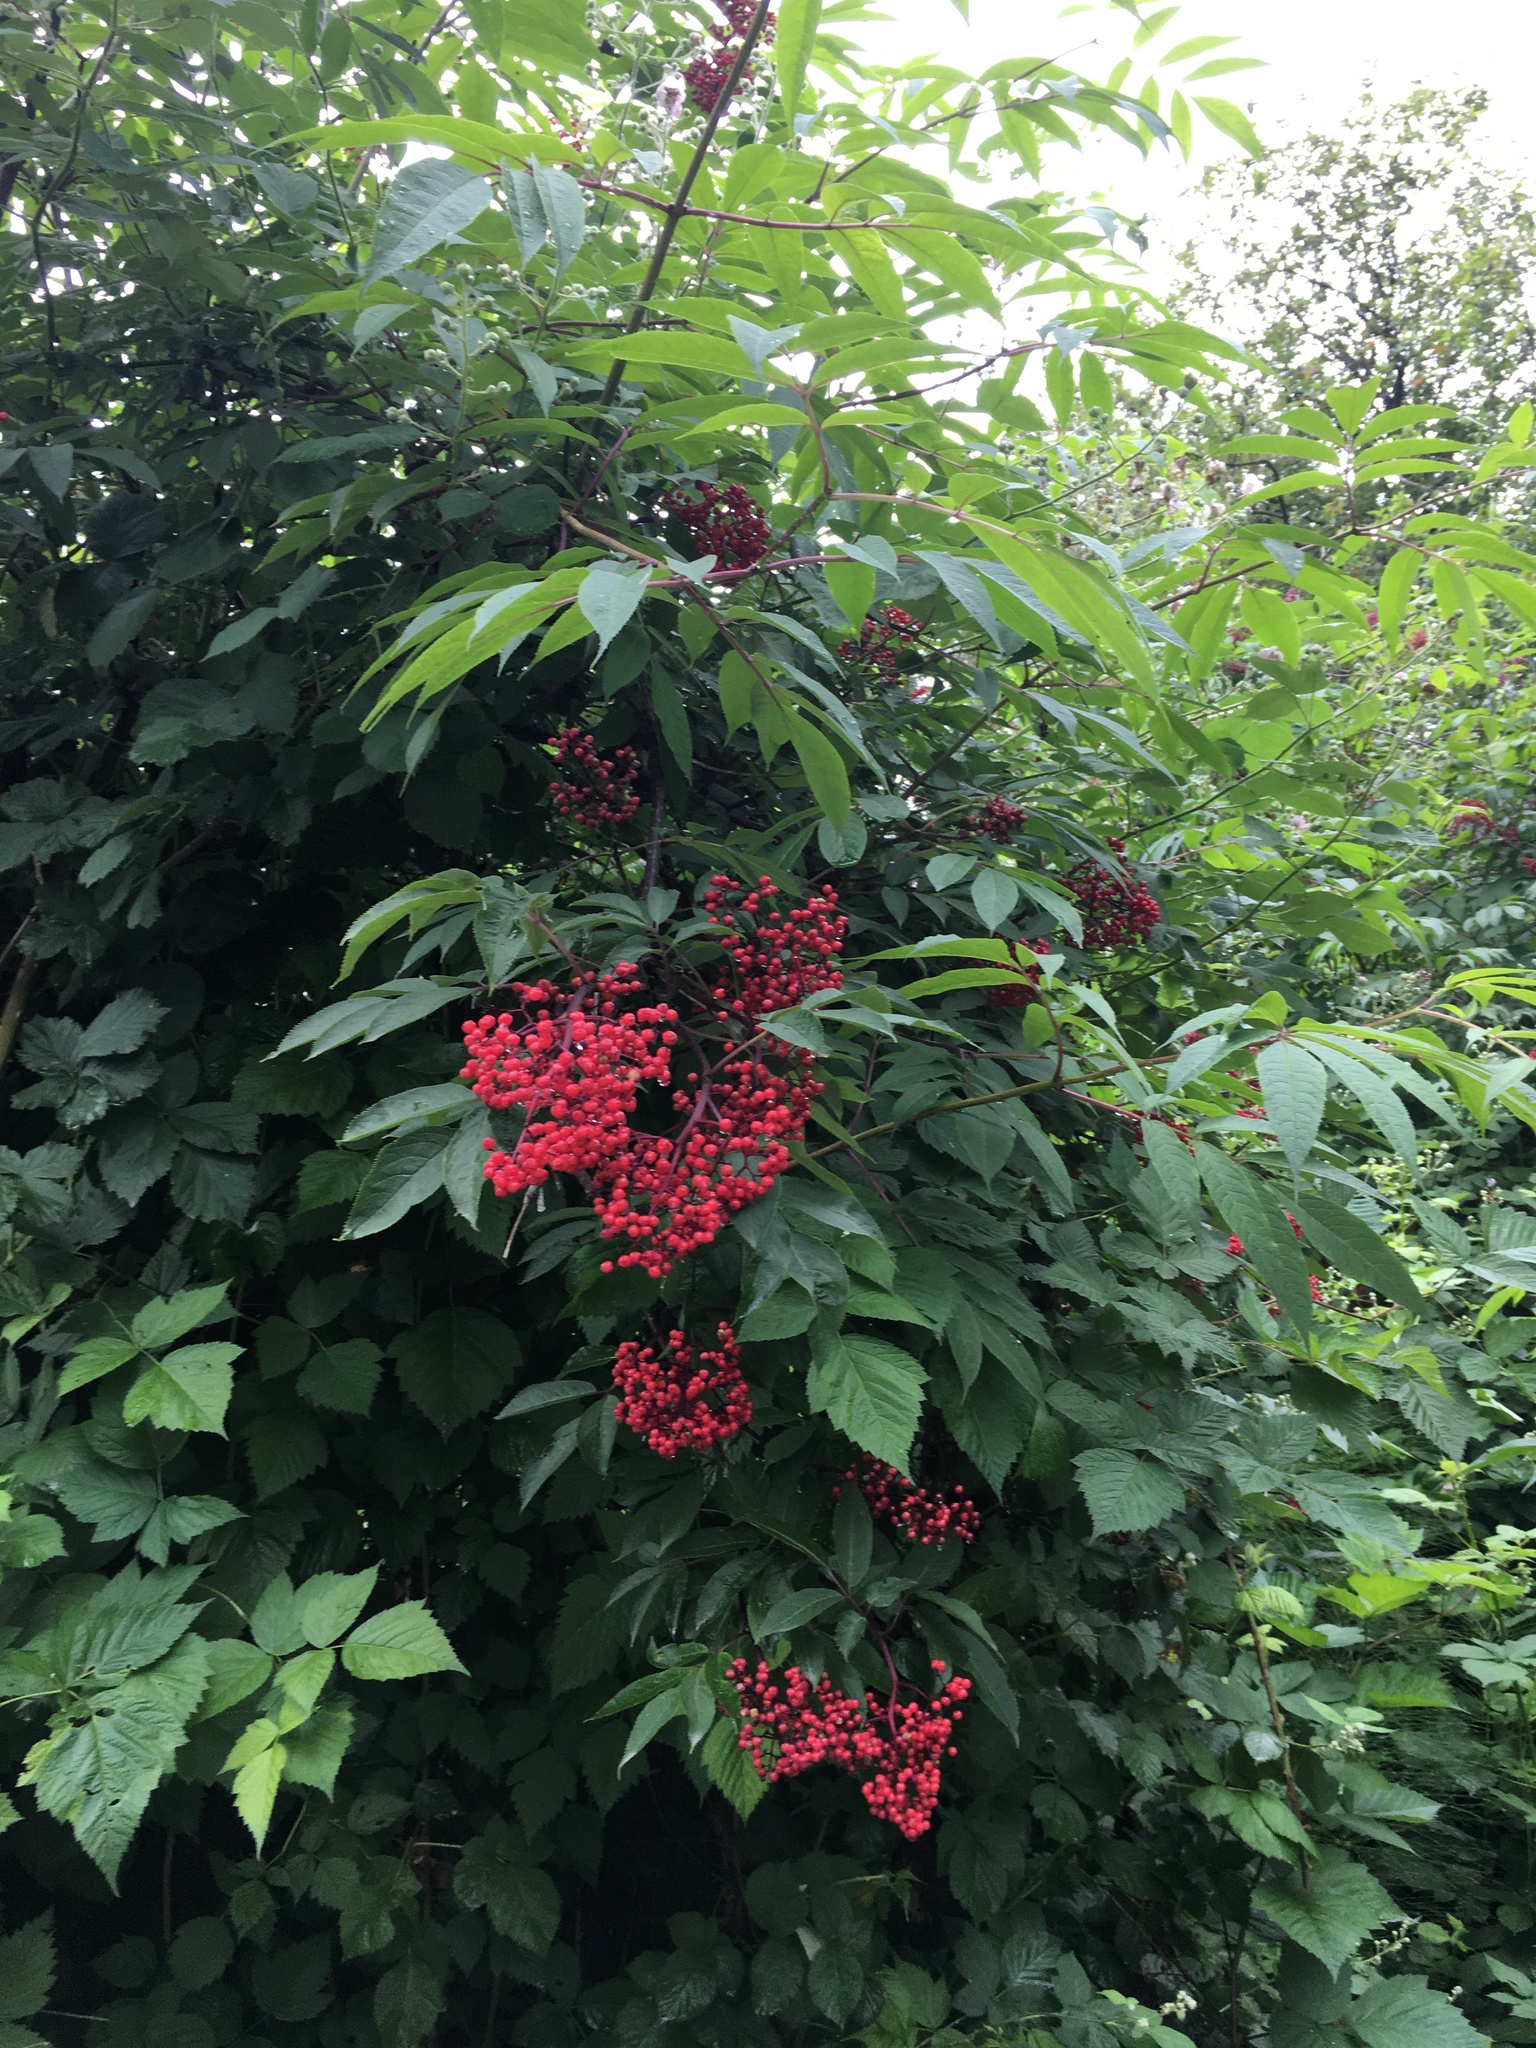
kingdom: Plantae
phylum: Tracheophyta
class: Magnoliopsida
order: Dipsacales
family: Viburnaceae
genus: Sambucus
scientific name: Sambucus racemosa
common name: Red-berried elder
